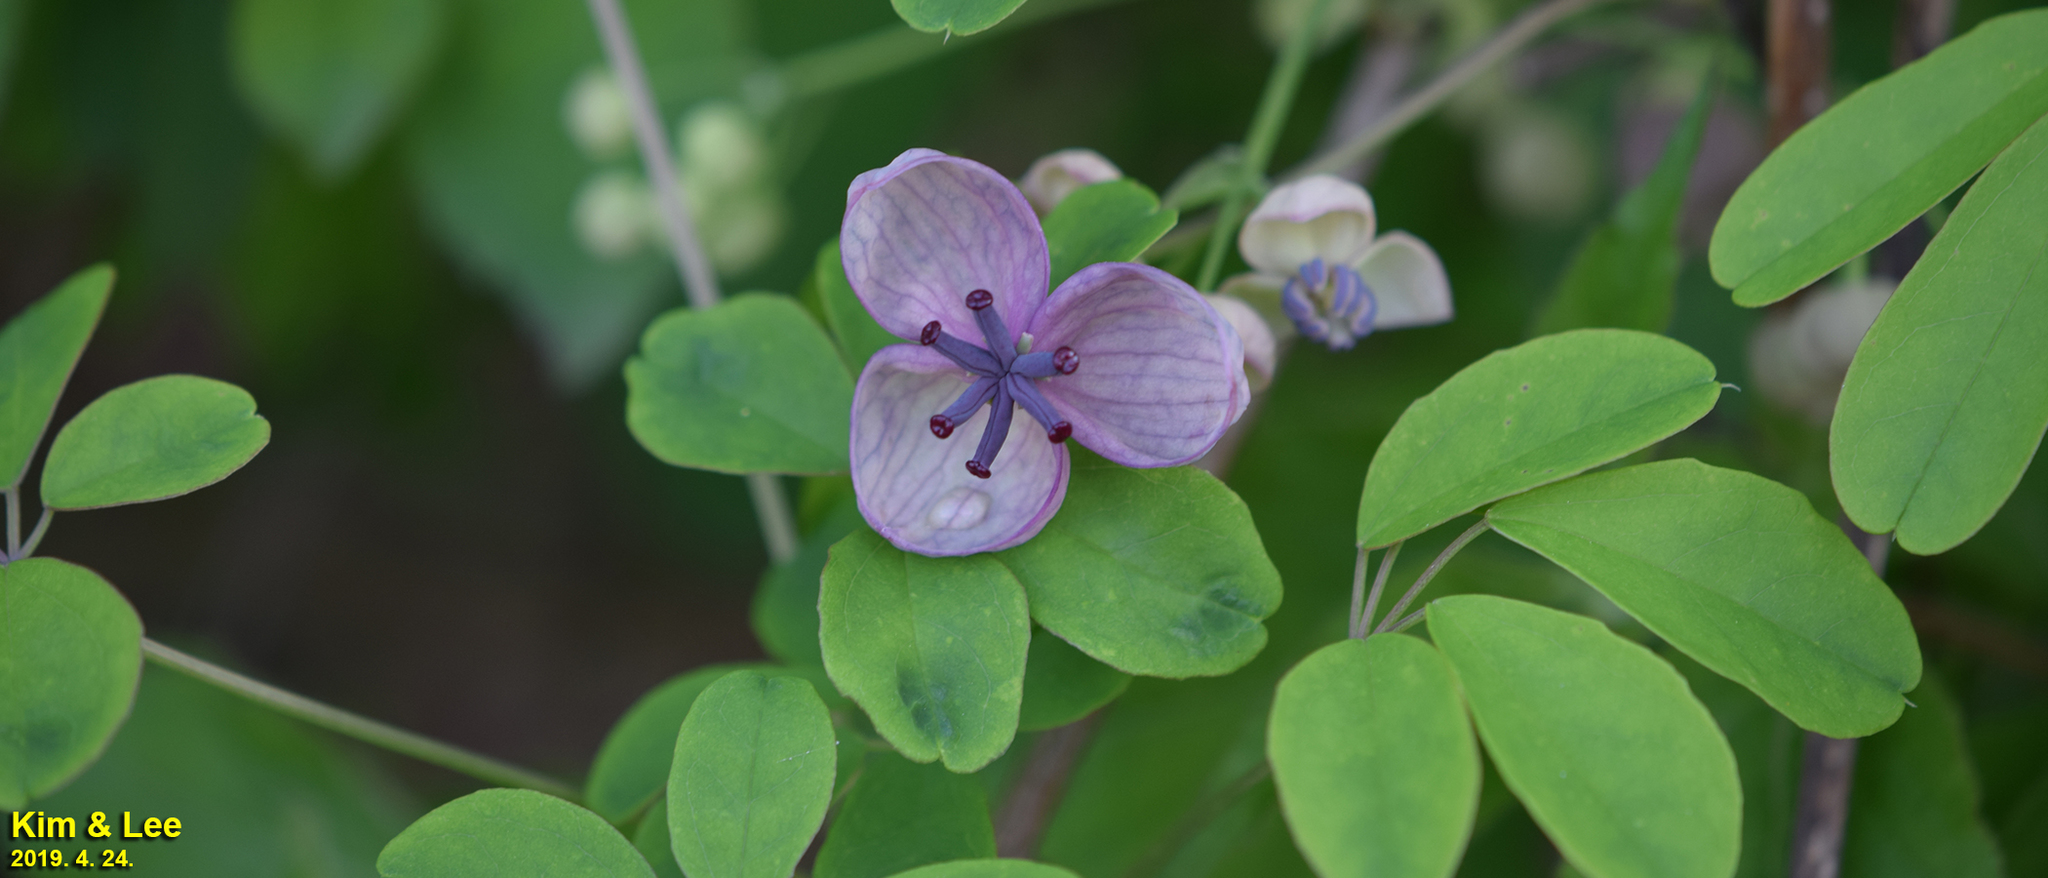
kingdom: Plantae
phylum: Tracheophyta
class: Magnoliopsida
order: Ranunculales
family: Lardizabalaceae
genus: Akebia
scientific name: Akebia quinata
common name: Five-leaf akebia
